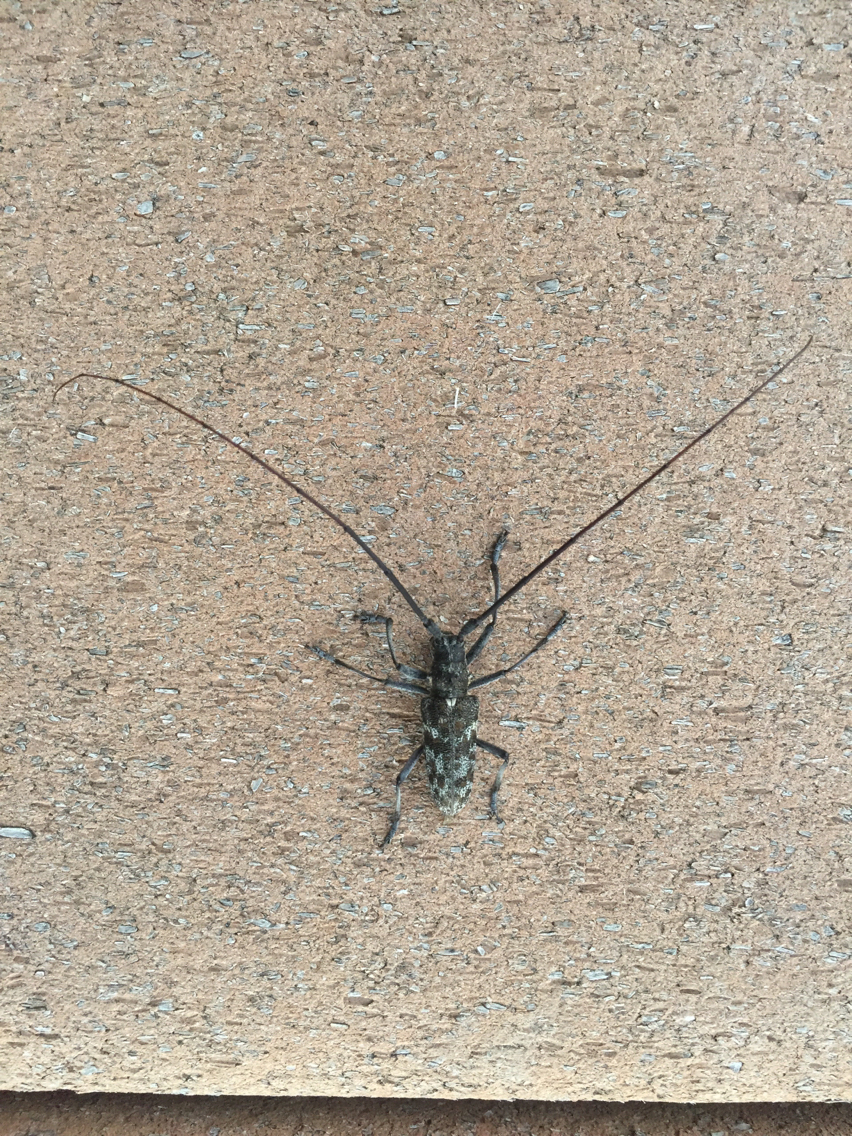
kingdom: Animalia
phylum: Arthropoda
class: Insecta
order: Coleoptera
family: Cerambycidae
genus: Monochamus
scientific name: Monochamus clamator
